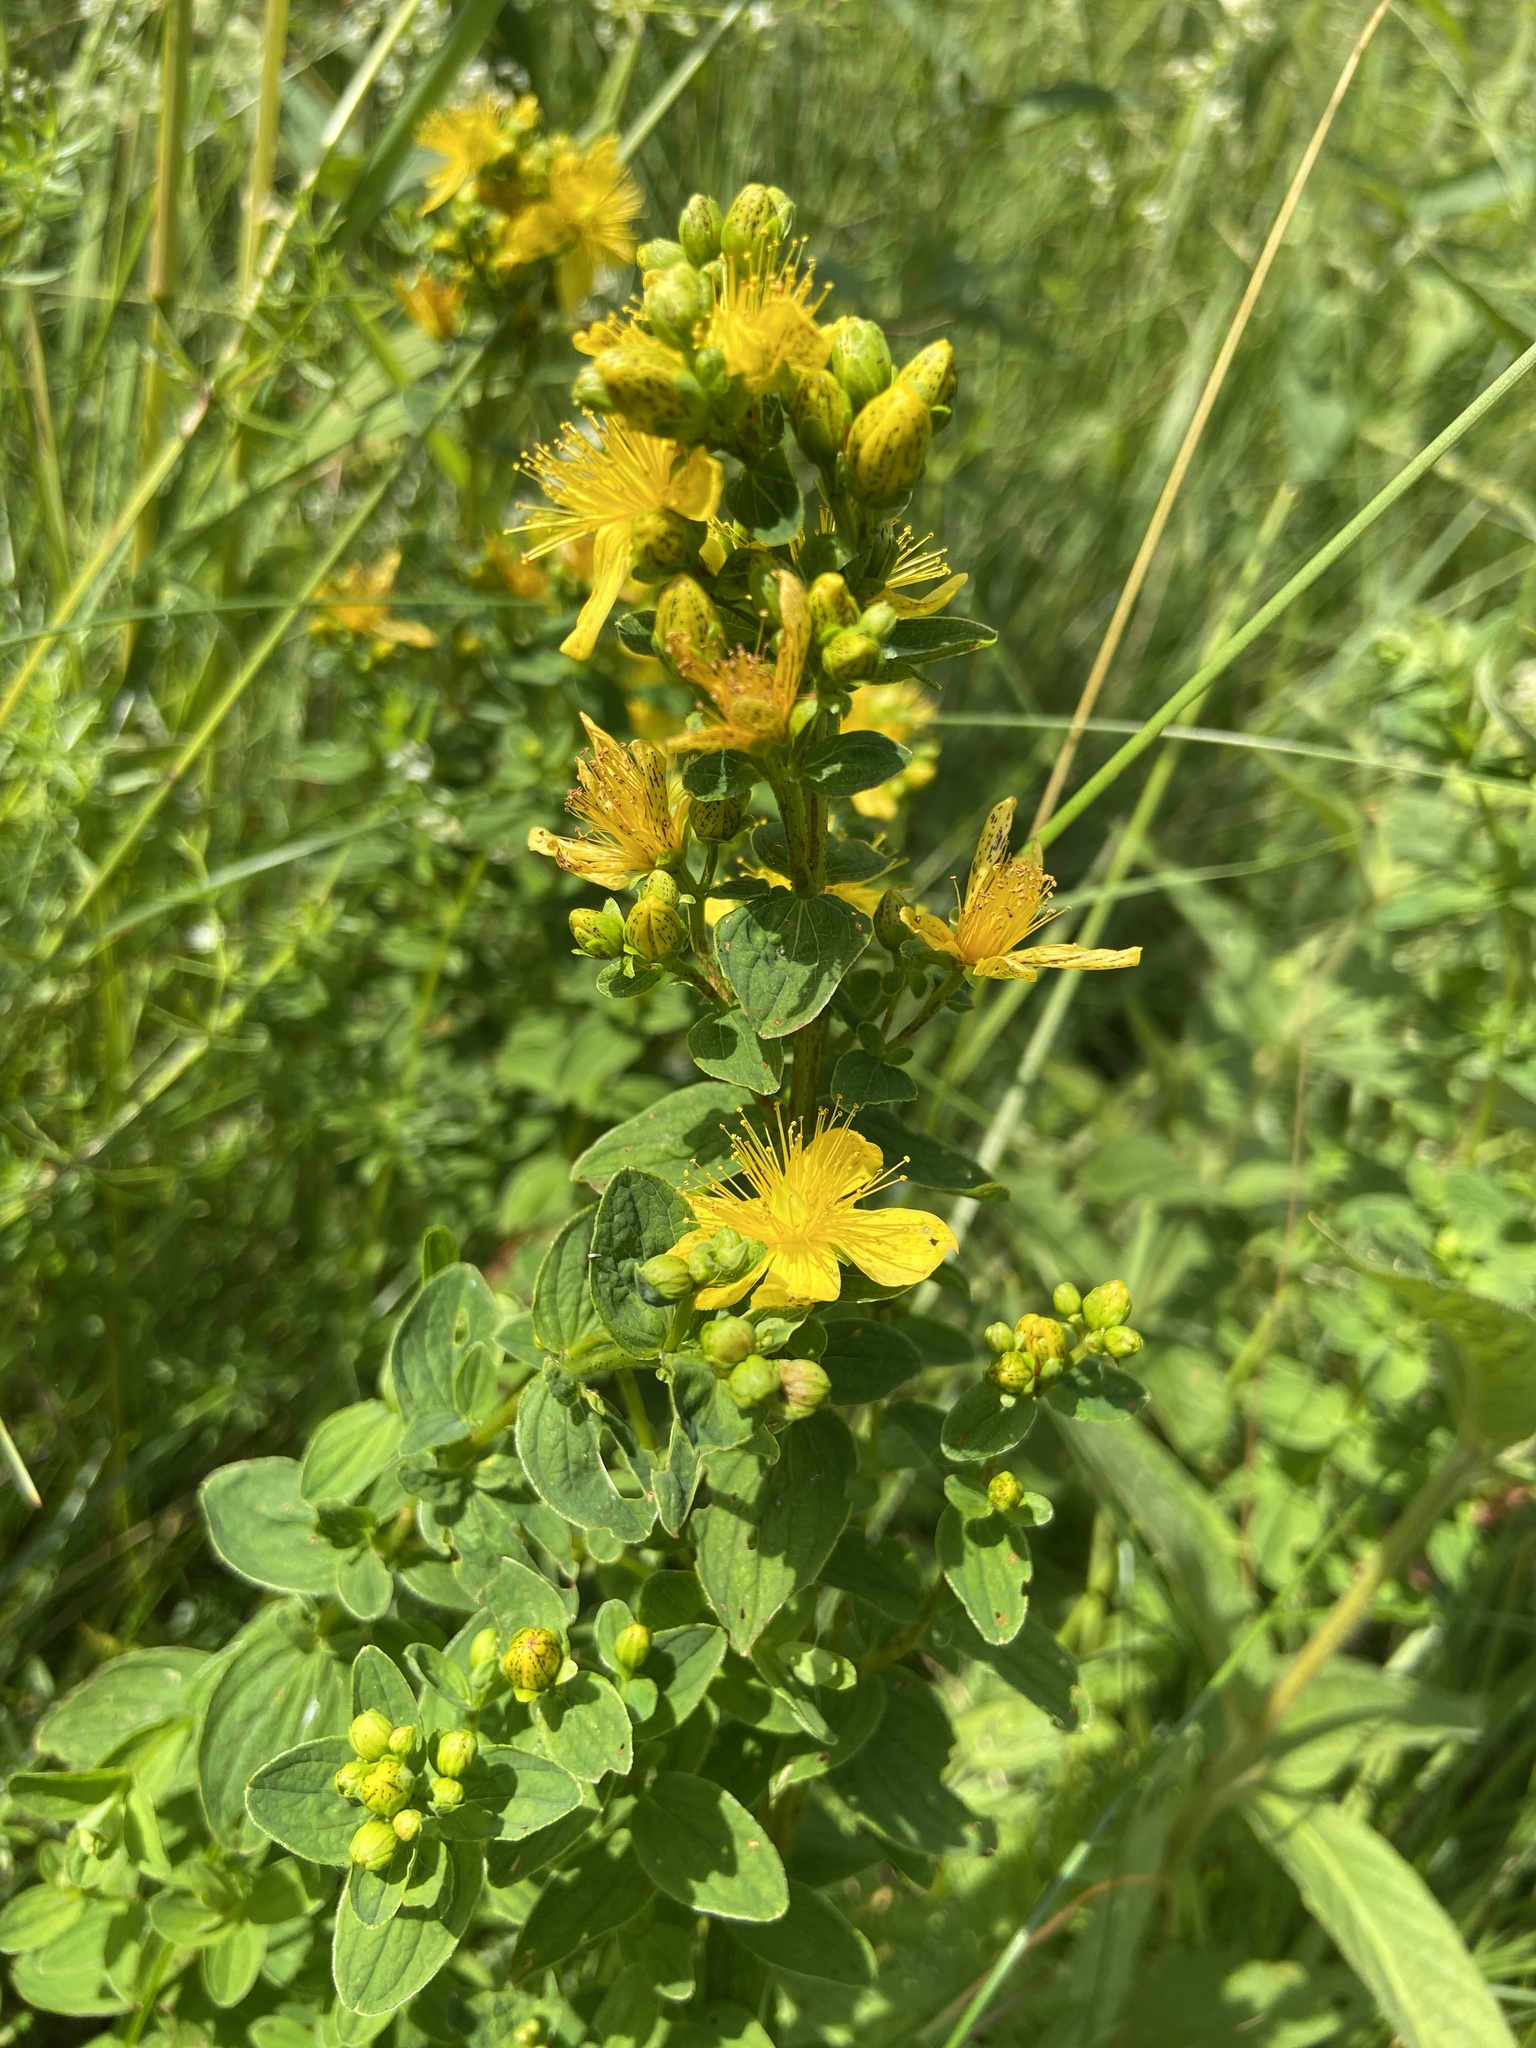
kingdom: Plantae
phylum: Tracheophyta
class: Magnoliopsida
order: Malpighiales
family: Hypericaceae
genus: Hypericum
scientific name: Hypericum maculatum
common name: Imperforate st. john's-wort
